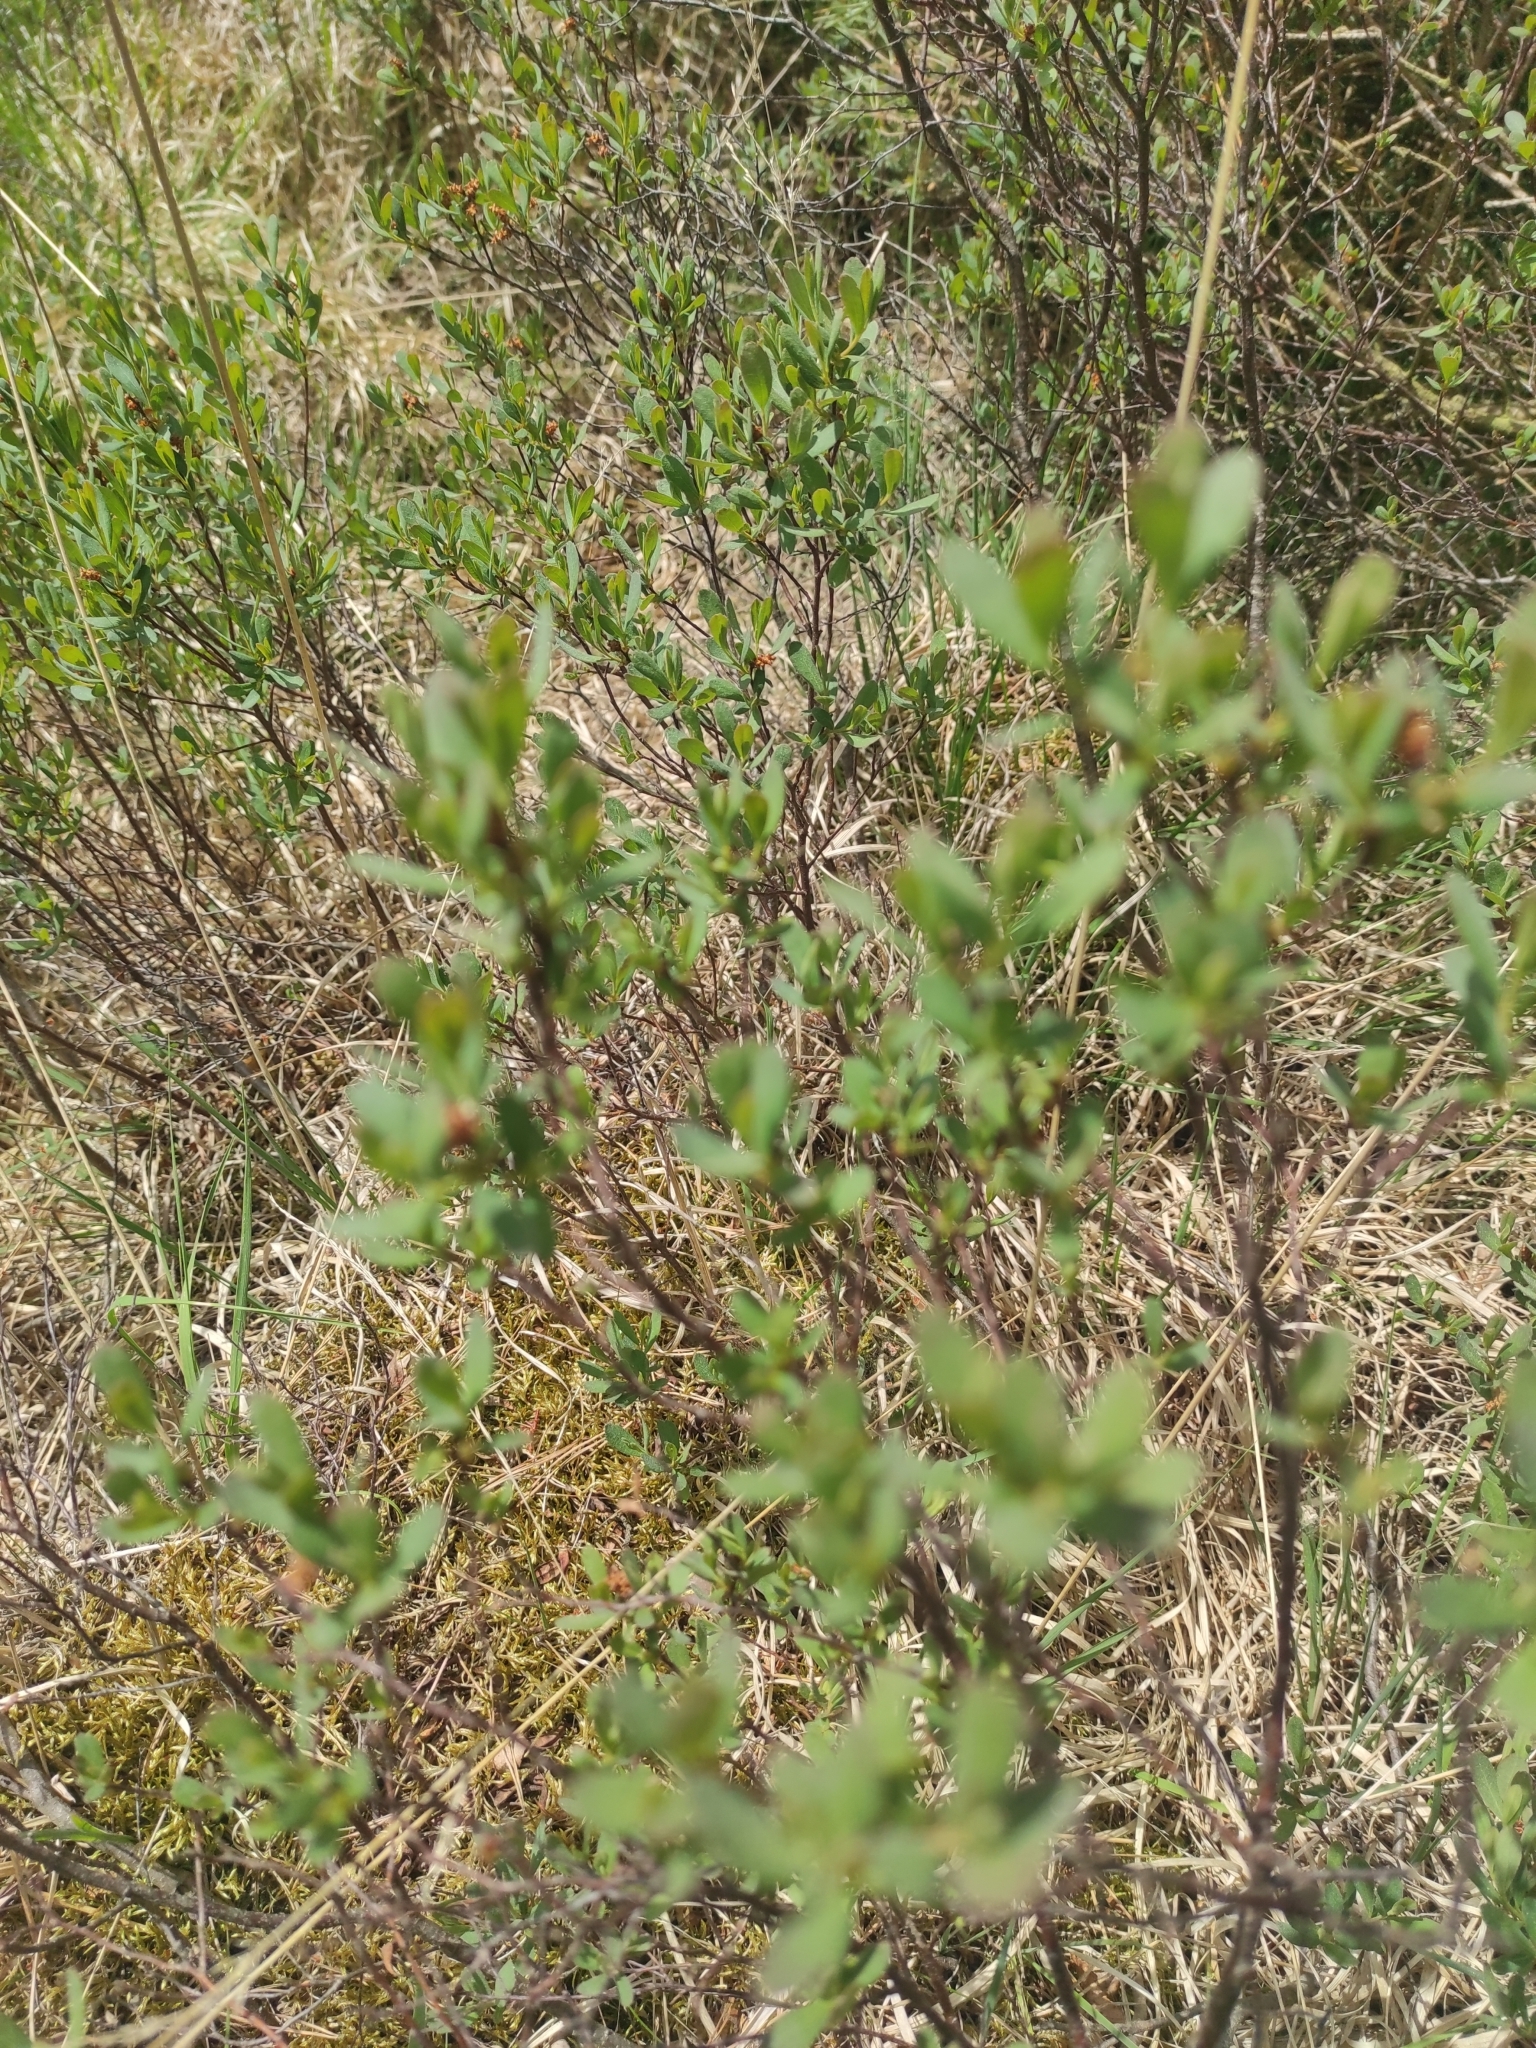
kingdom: Plantae
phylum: Tracheophyta
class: Magnoliopsida
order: Fagales
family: Myricaceae
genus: Myrica
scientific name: Myrica gale
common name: Sweet gale
